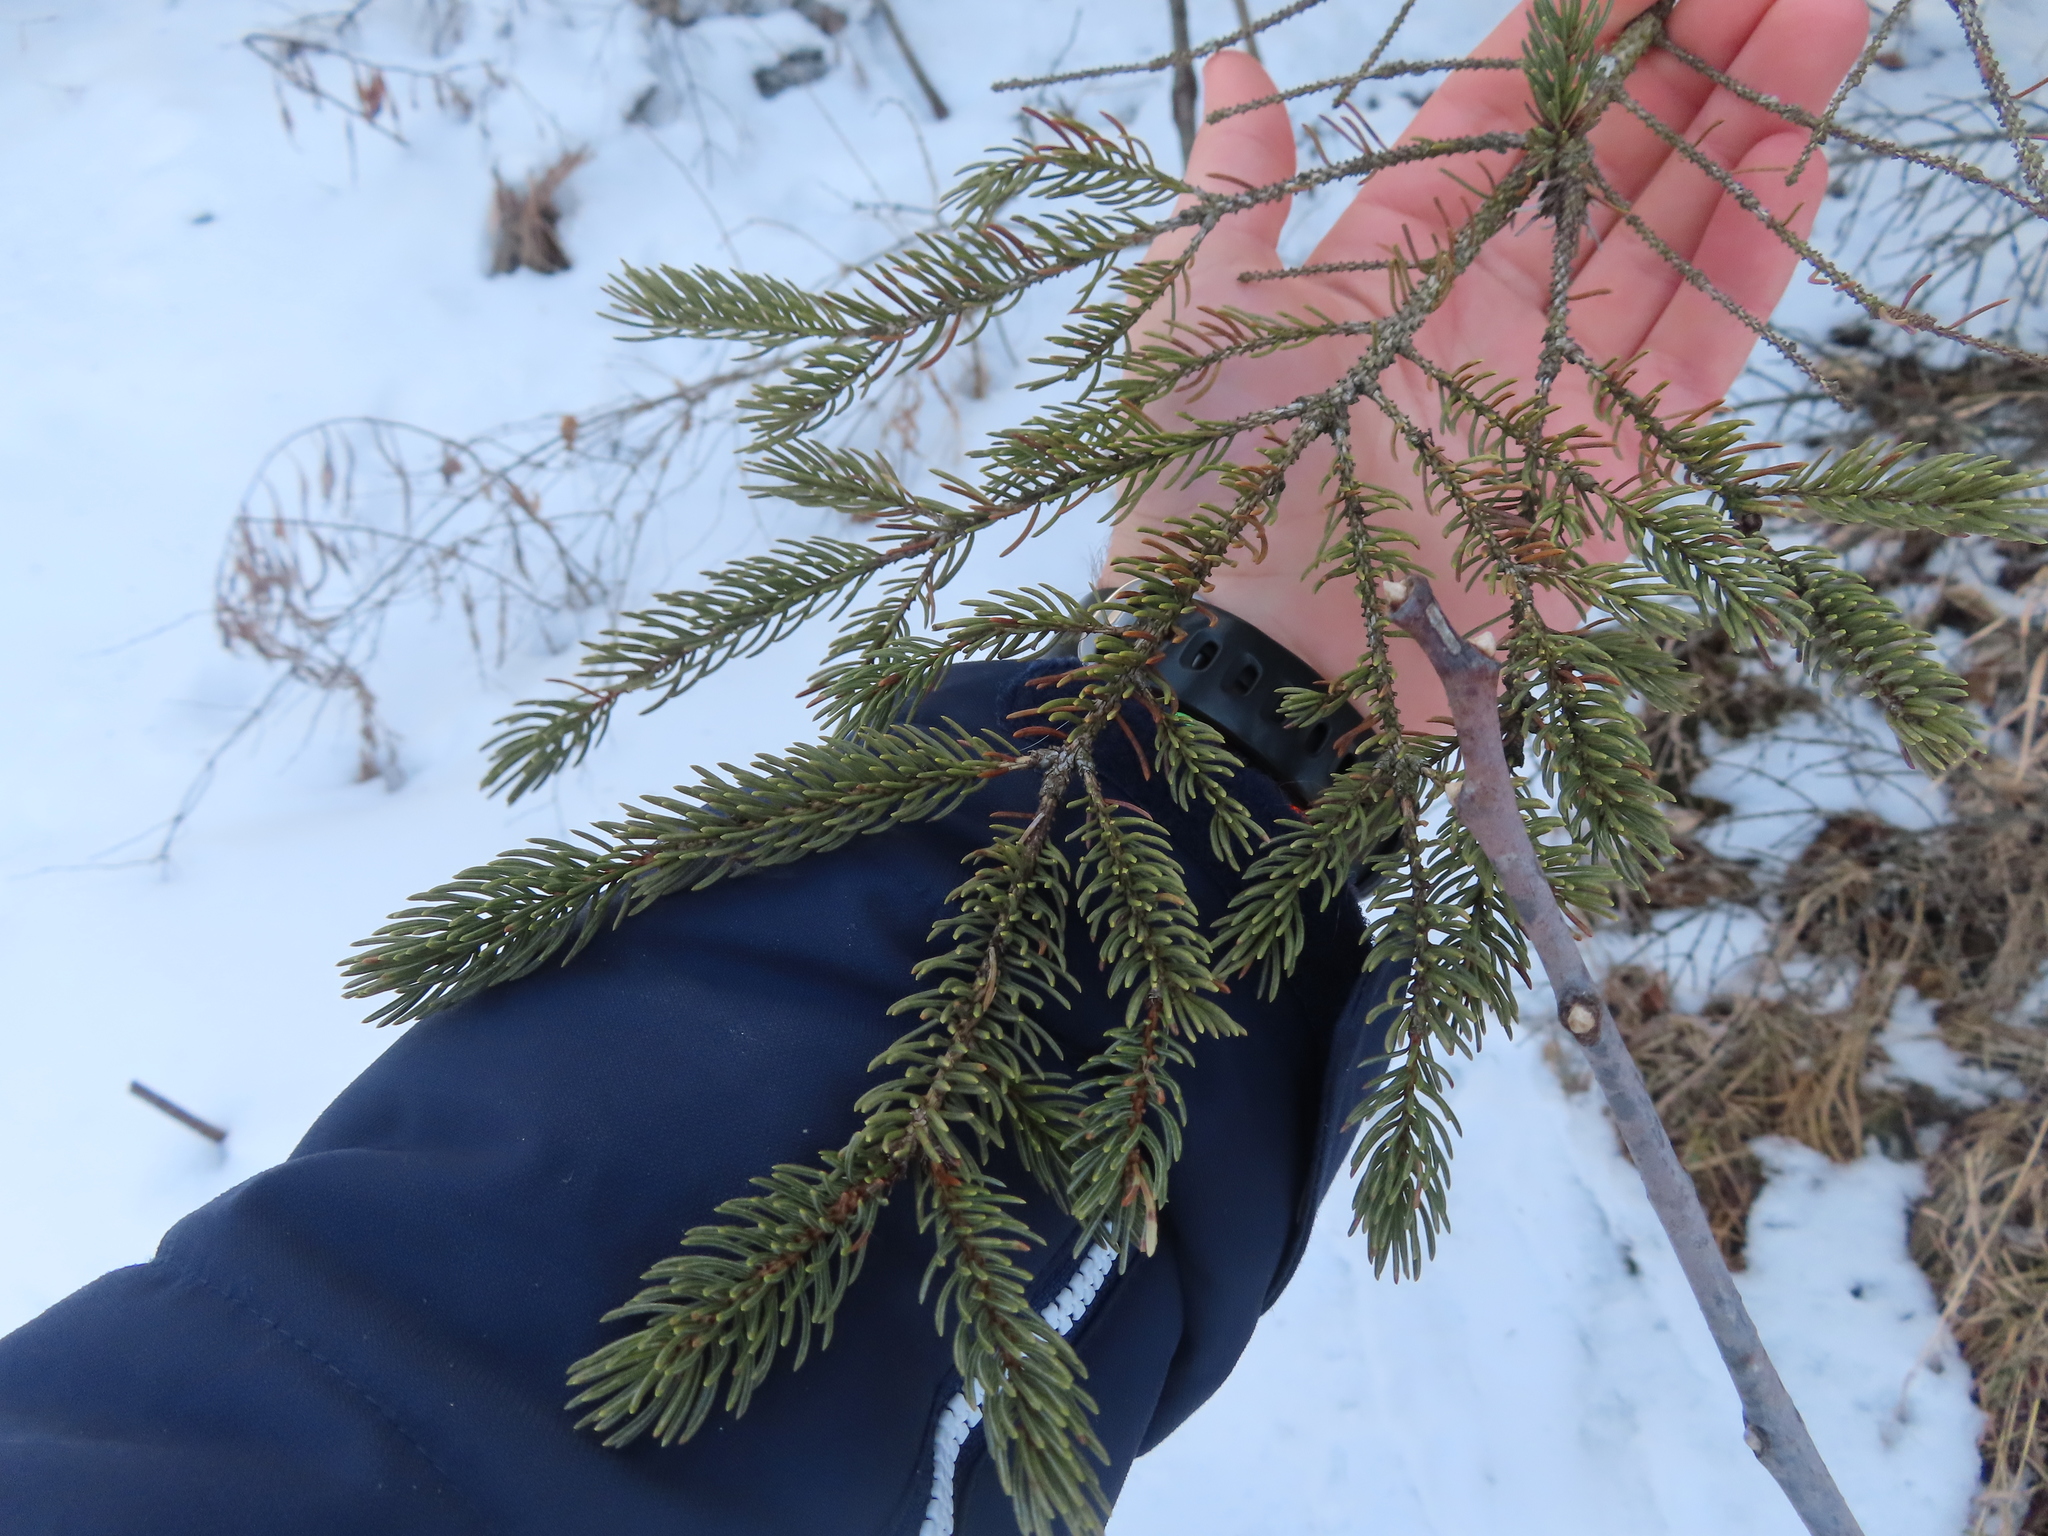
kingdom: Plantae
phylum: Tracheophyta
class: Pinopsida
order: Pinales
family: Pinaceae
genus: Picea
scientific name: Picea mariana
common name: Black spruce
